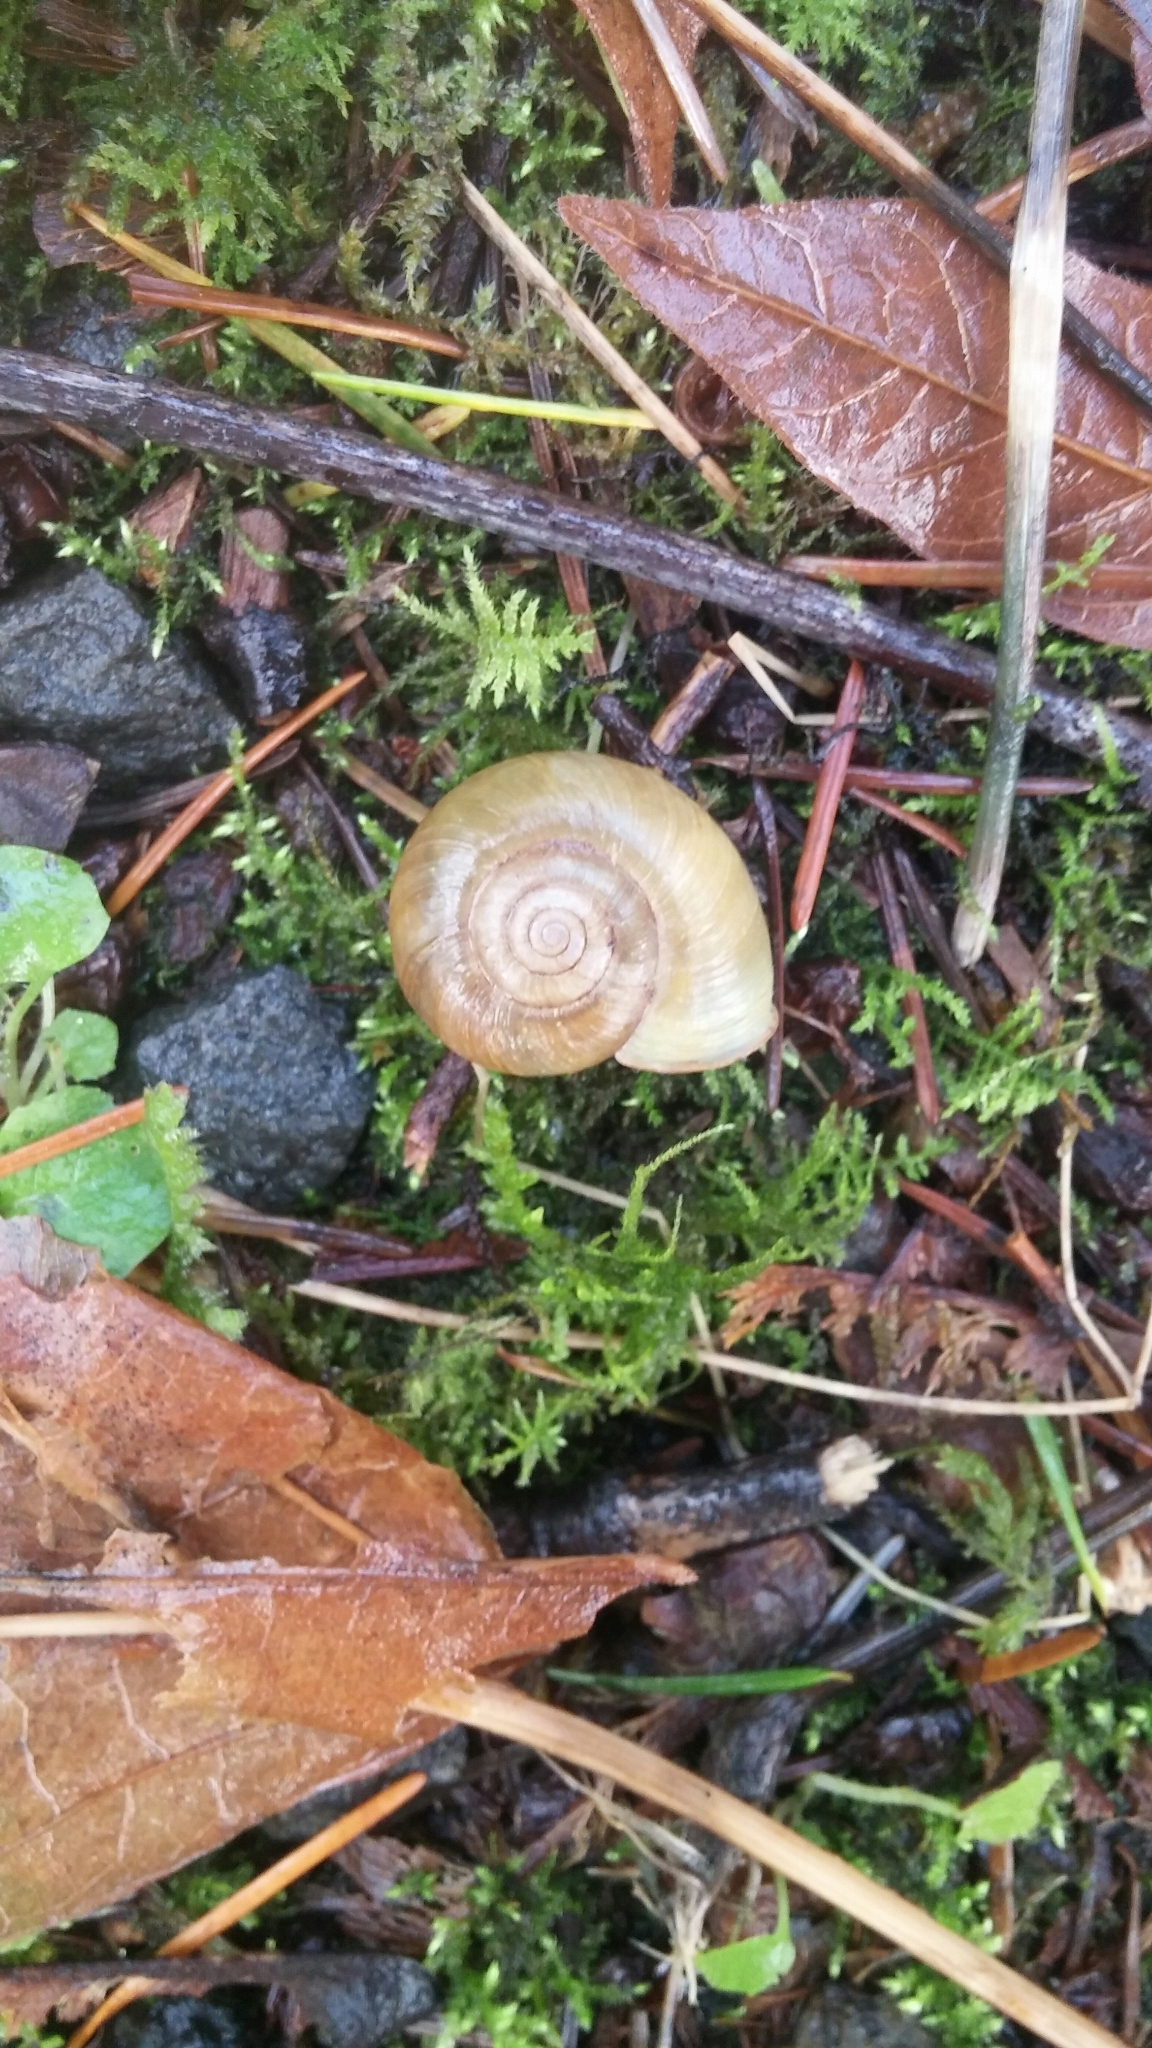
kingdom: Animalia
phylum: Mollusca
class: Gastropoda
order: Stylommatophora
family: Haplotrematidae
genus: Ancotrema
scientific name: Ancotrema sportella
